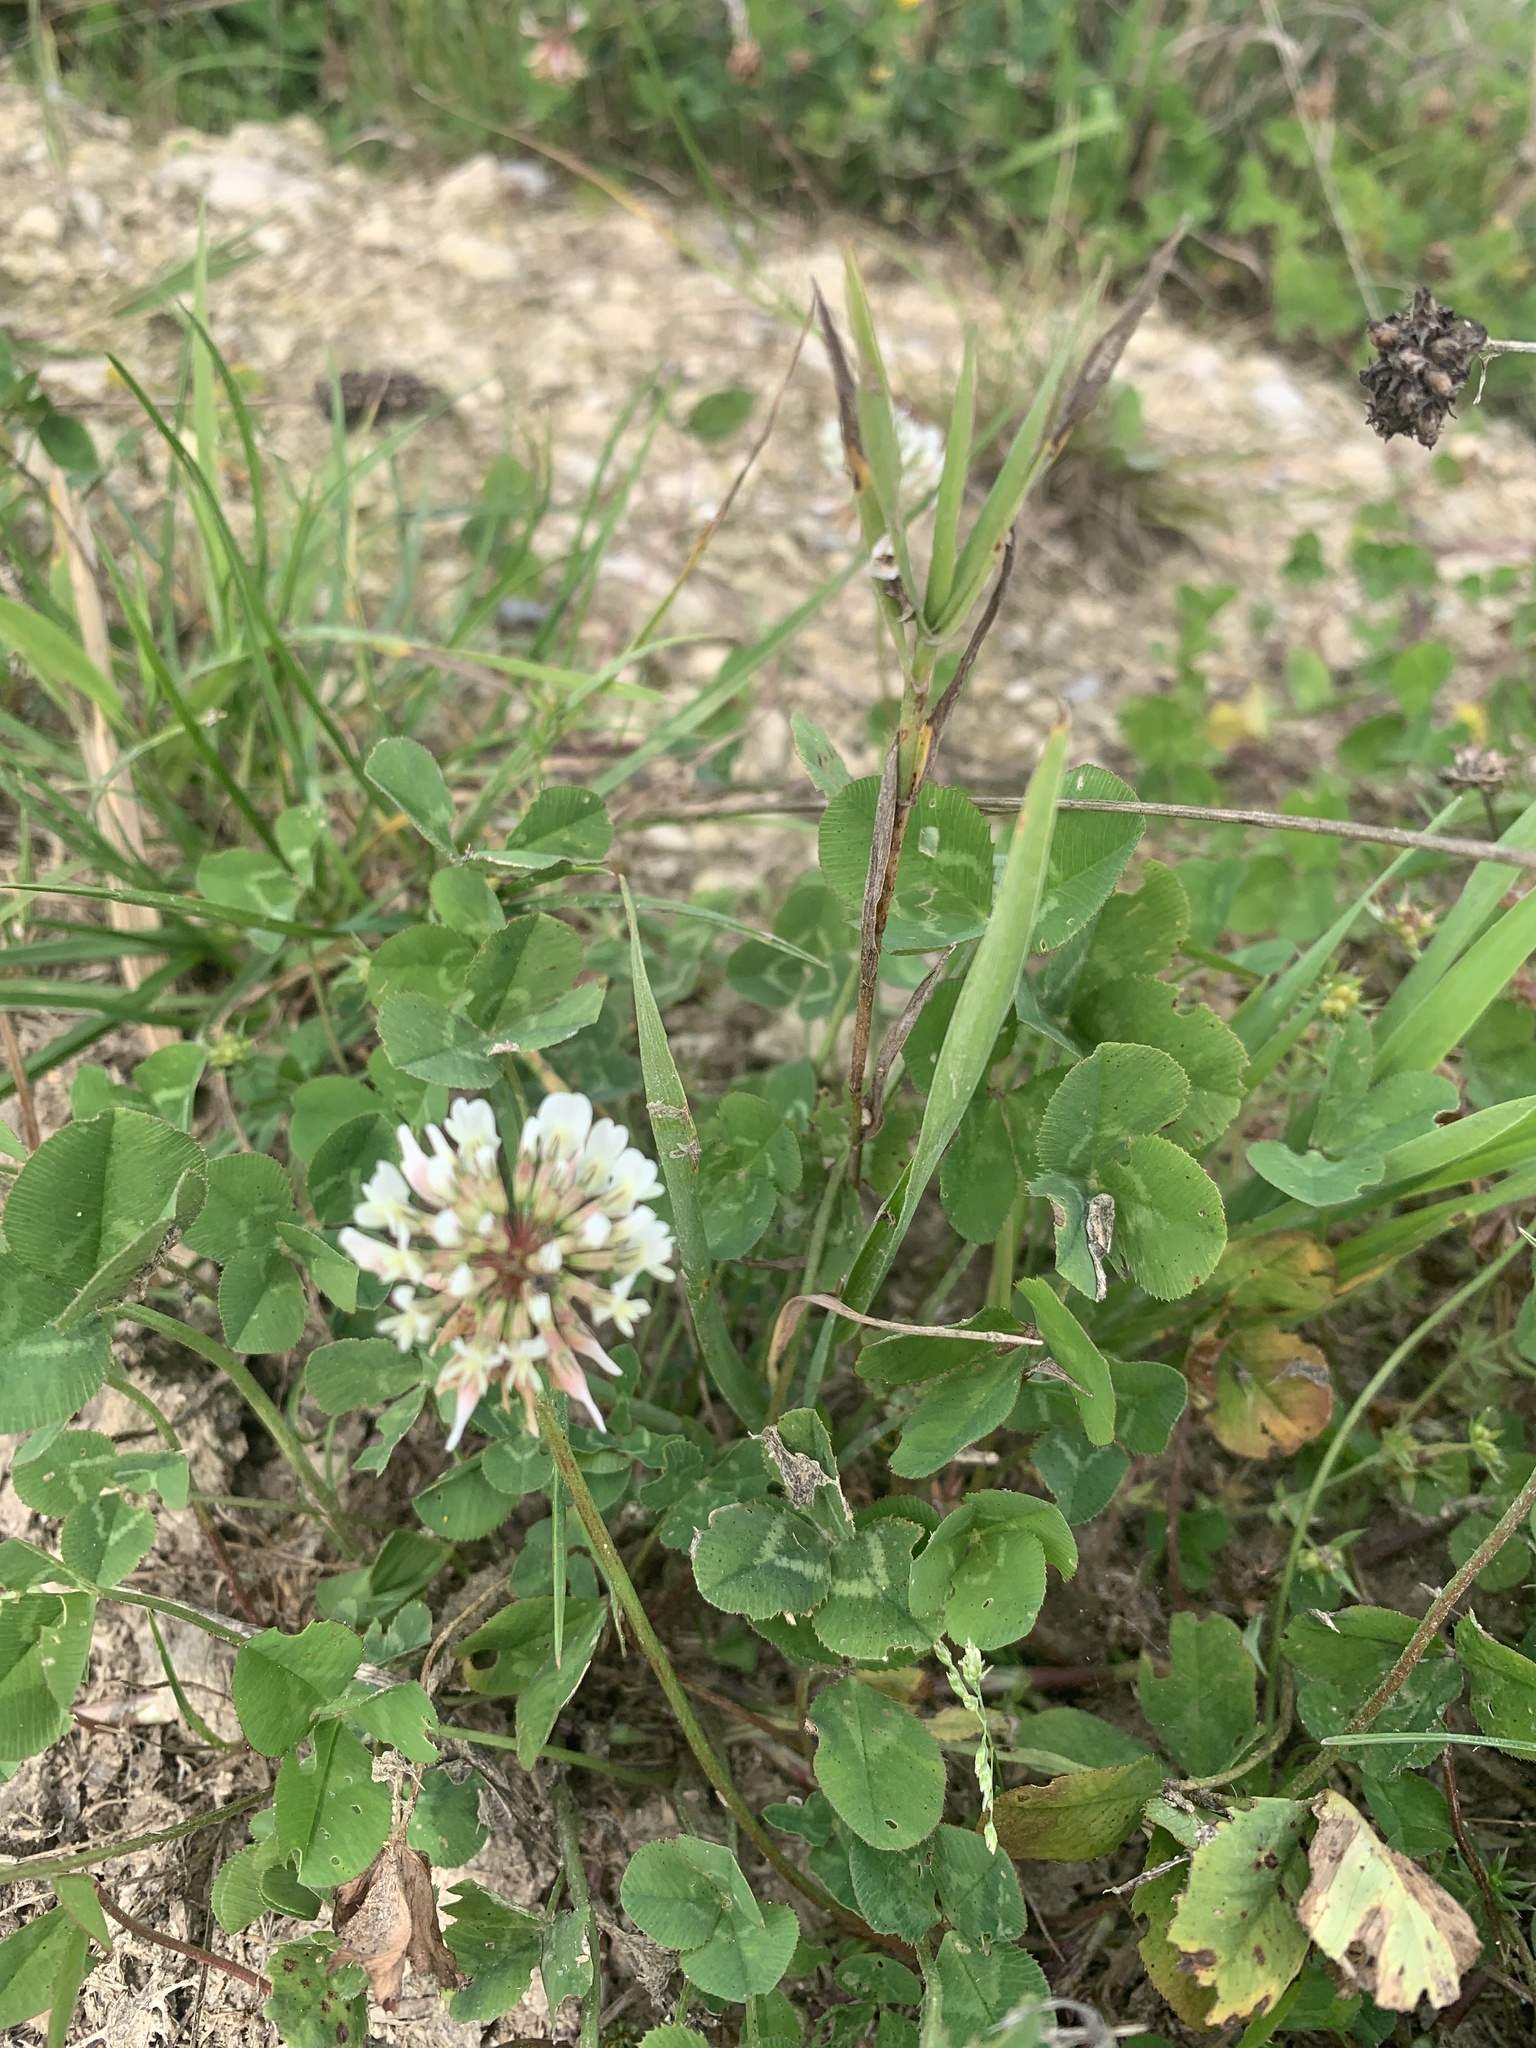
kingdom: Plantae
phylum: Tracheophyta
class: Magnoliopsida
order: Fabales
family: Fabaceae
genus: Trifolium
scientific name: Trifolium repens
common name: White clover
